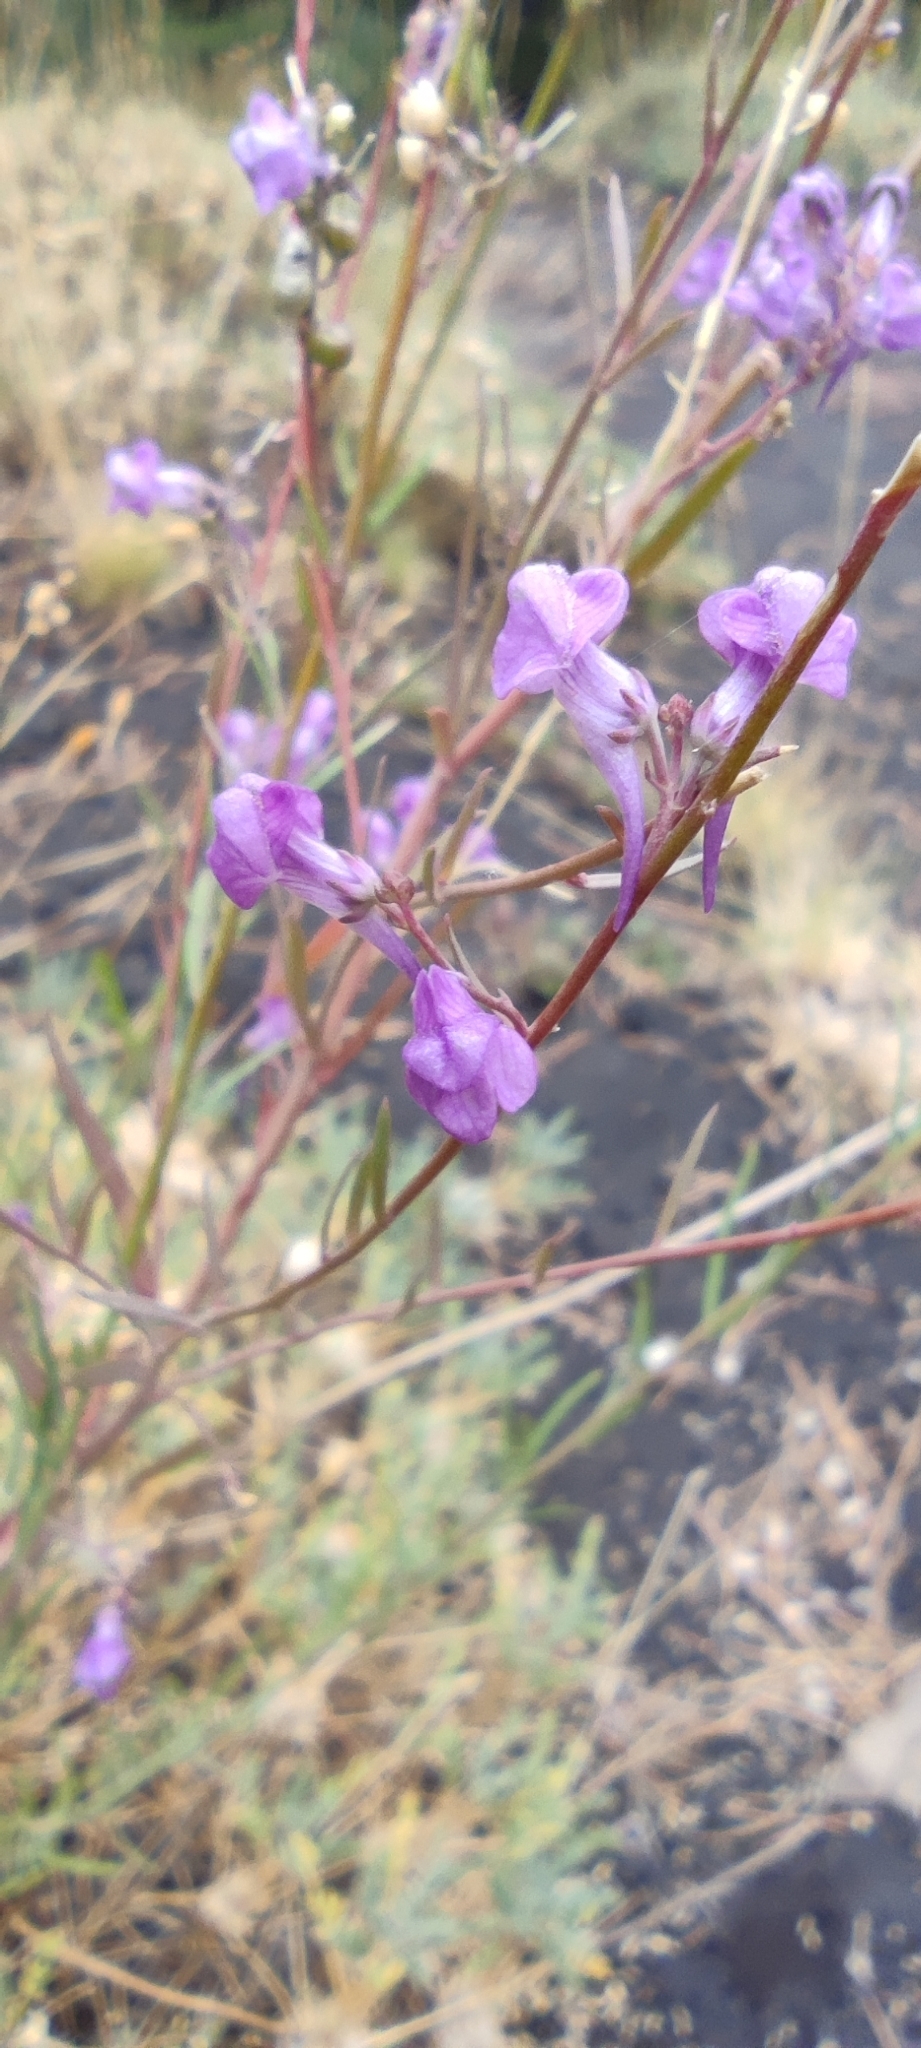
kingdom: Plantae
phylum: Tracheophyta
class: Magnoliopsida
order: Lamiales
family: Plantaginaceae
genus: Linaria
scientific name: Linaria purpurea
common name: Purple toadflax
